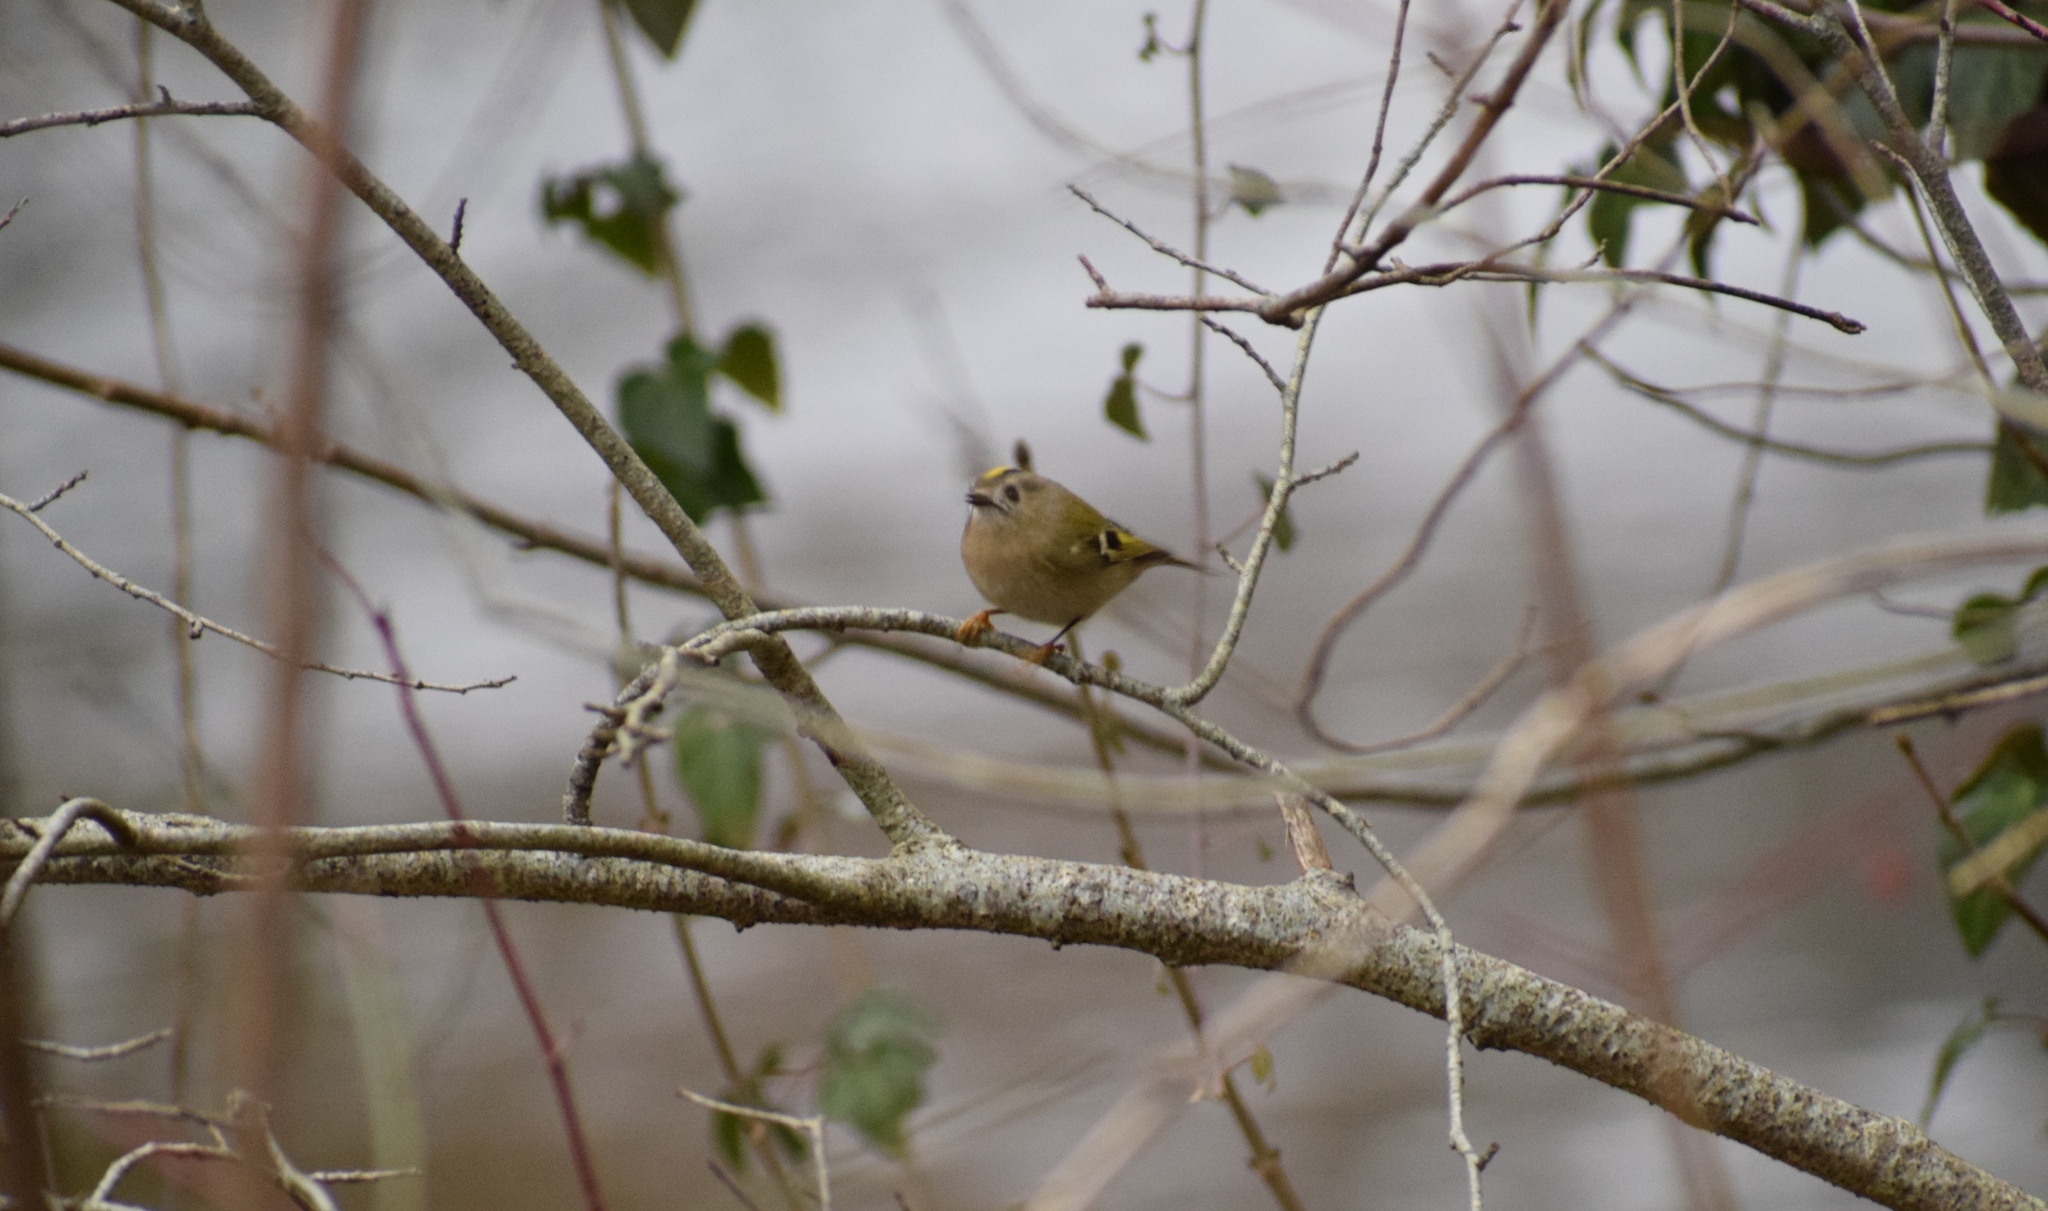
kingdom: Animalia
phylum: Chordata
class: Aves
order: Passeriformes
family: Regulidae
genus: Regulus
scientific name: Regulus regulus
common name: Goldcrest
